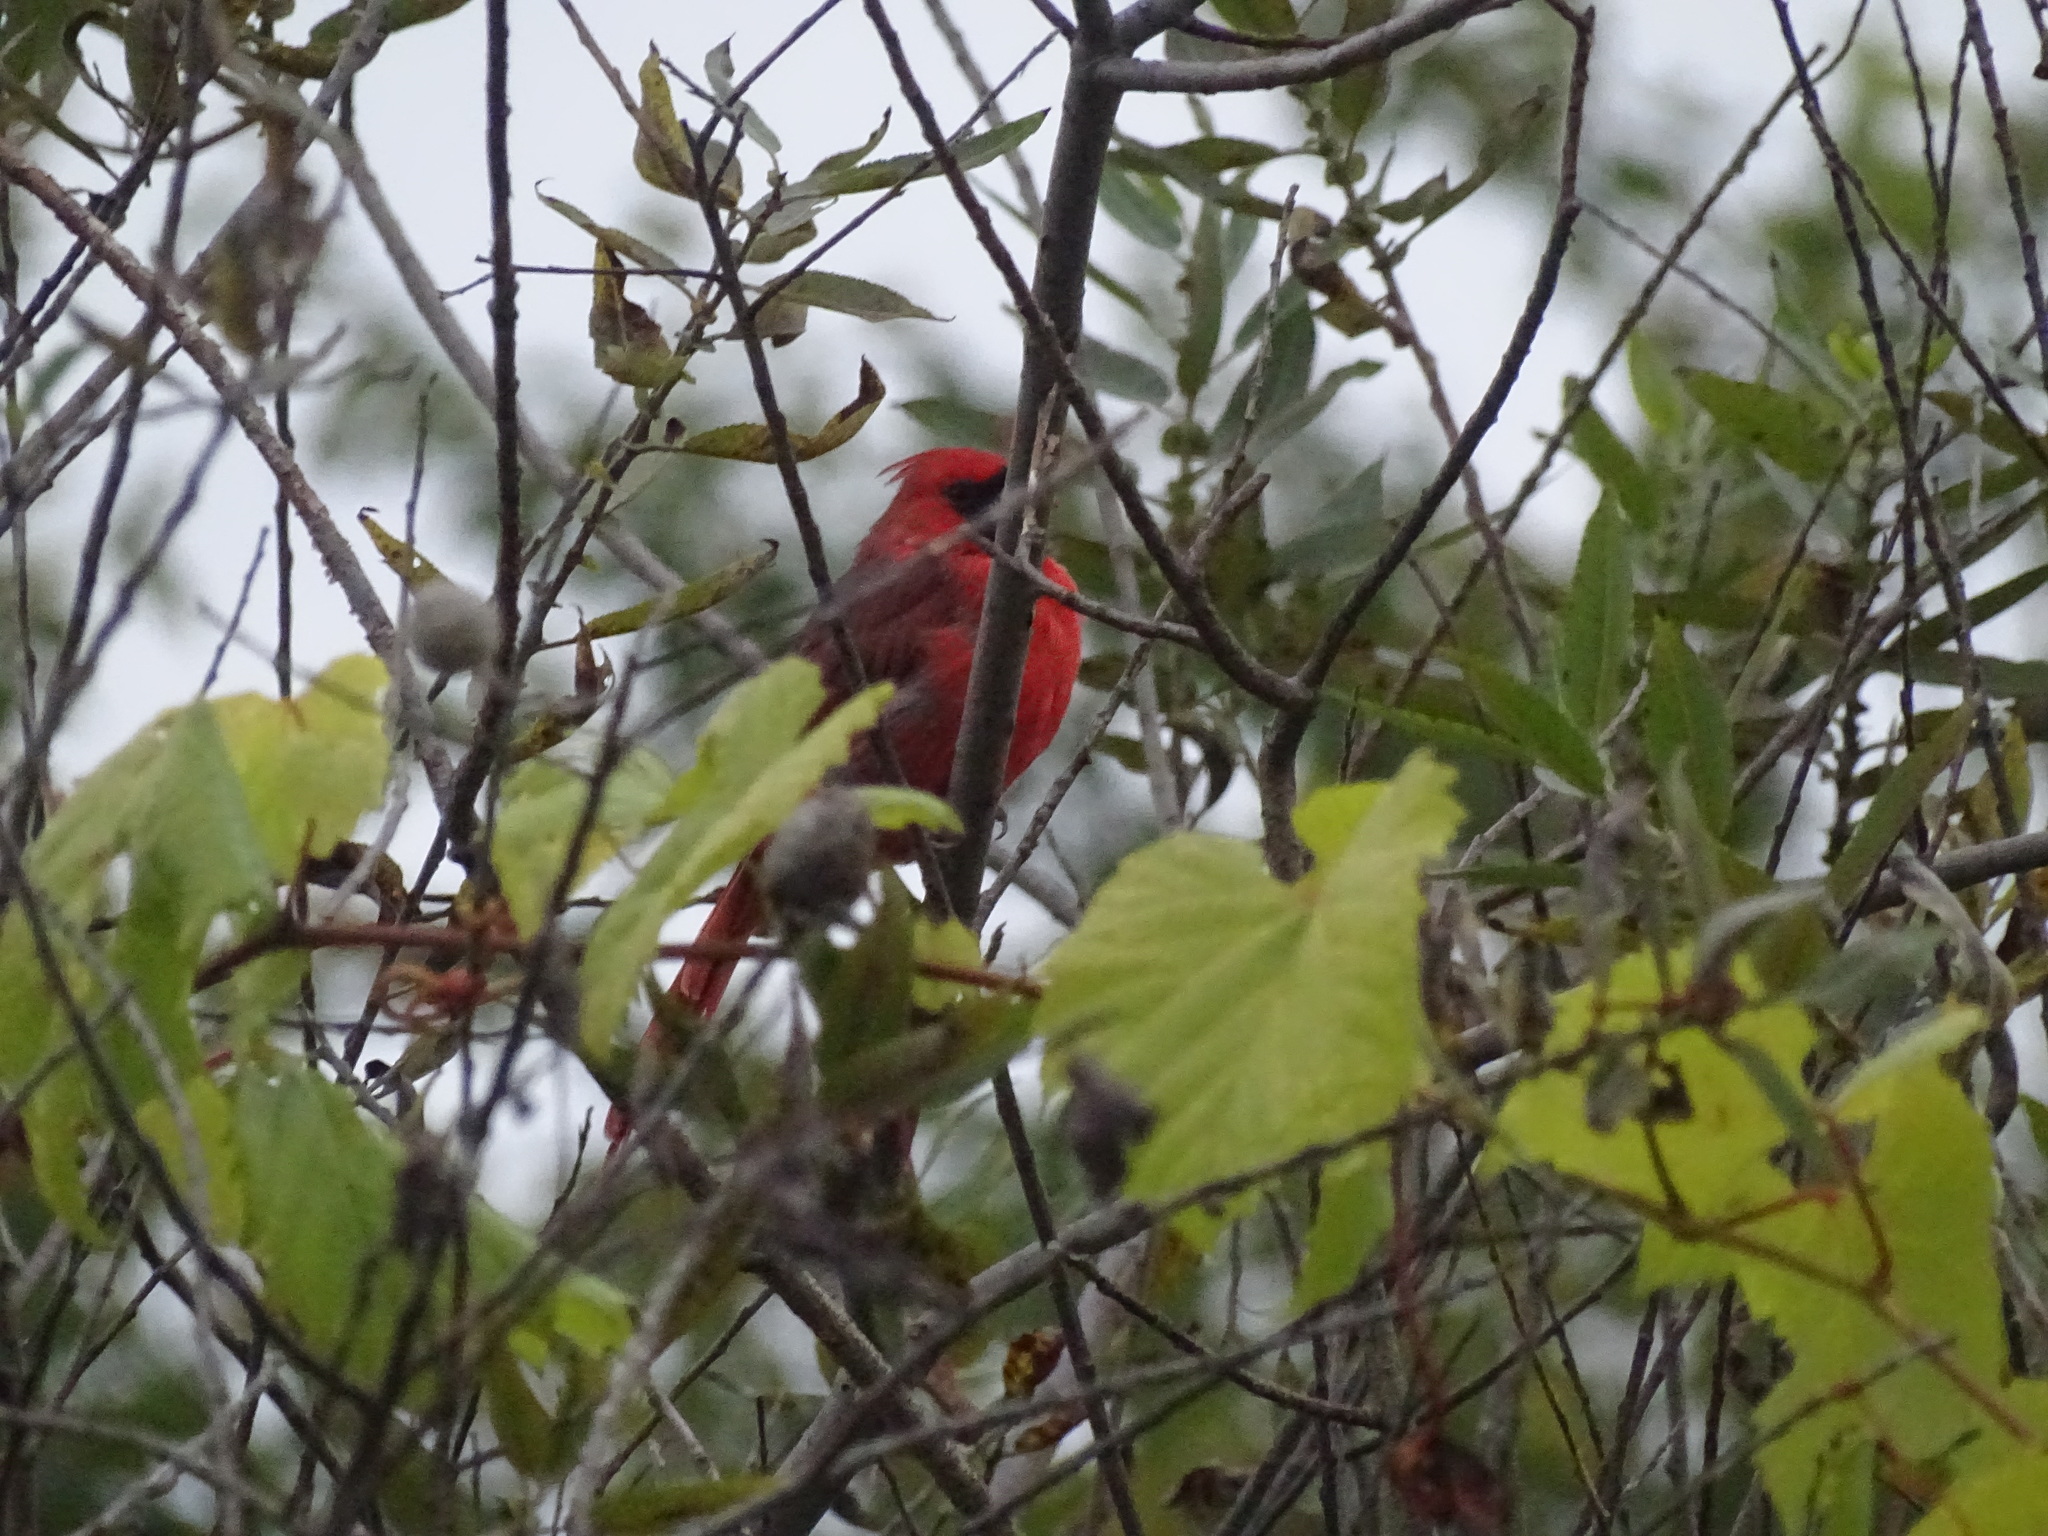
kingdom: Animalia
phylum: Chordata
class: Aves
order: Passeriformes
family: Cardinalidae
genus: Cardinalis
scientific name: Cardinalis cardinalis
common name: Northern cardinal
